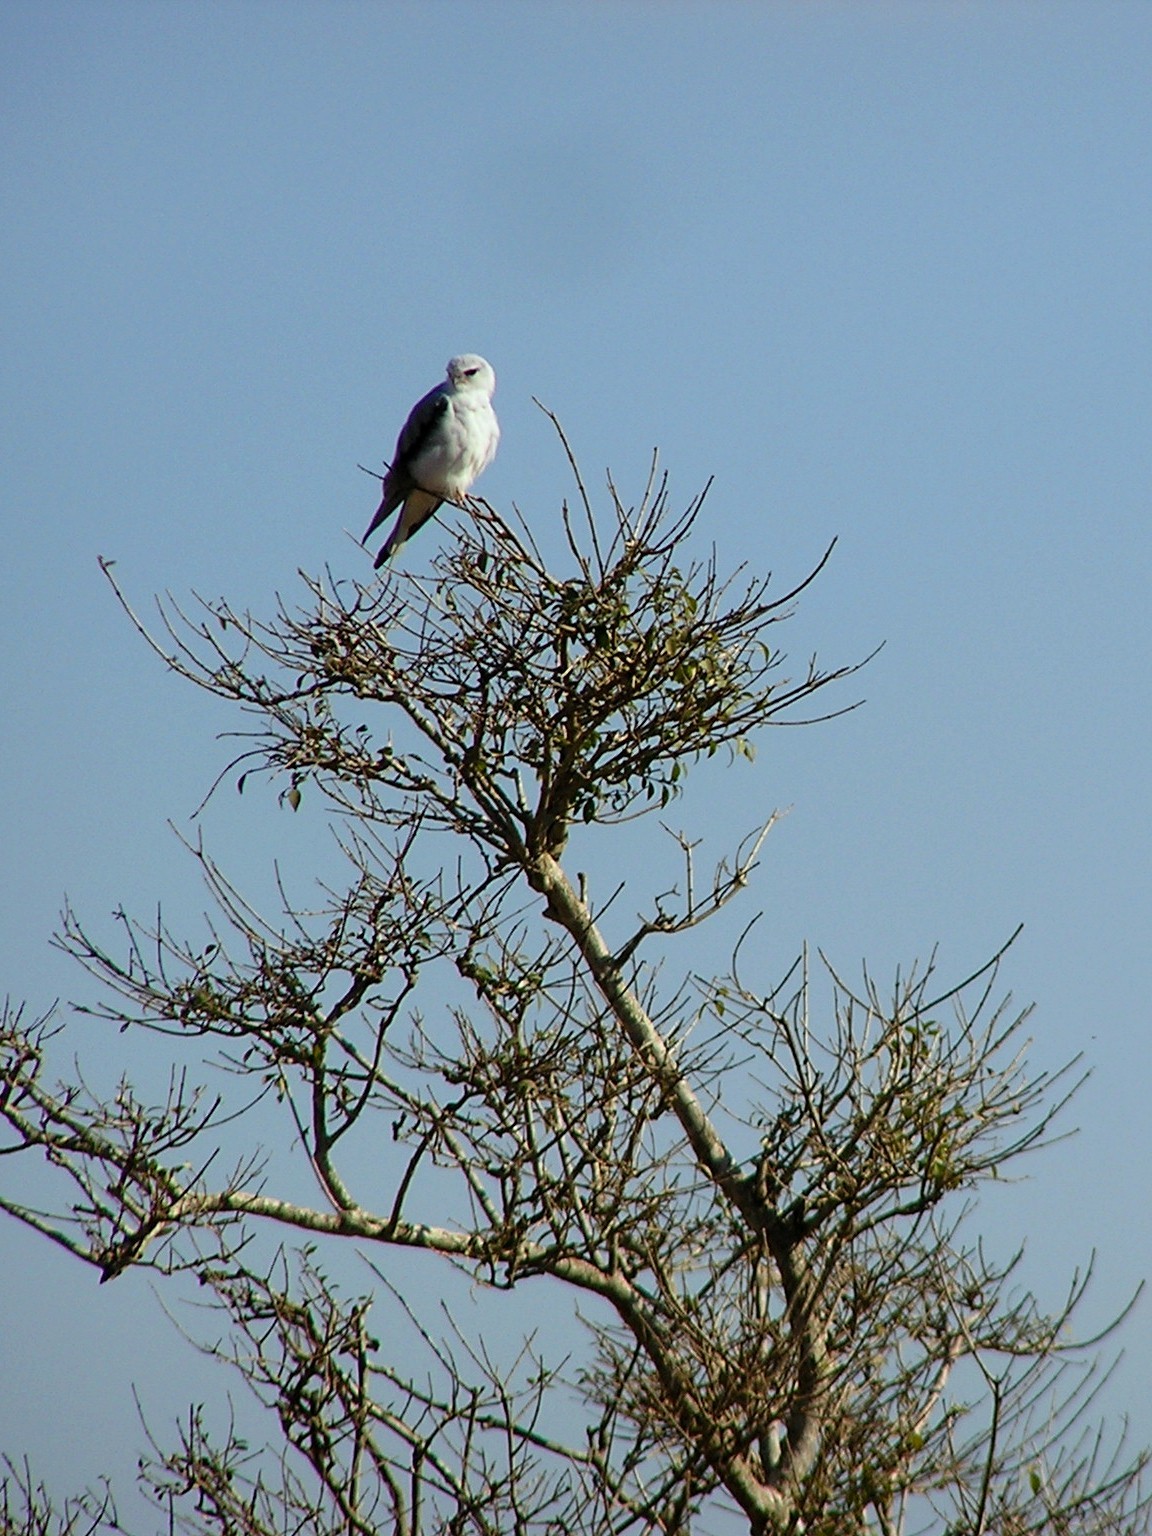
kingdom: Animalia
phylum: Chordata
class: Aves
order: Accipitriformes
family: Accipitridae
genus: Elanus
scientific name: Elanus caeruleus
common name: Black-winged kite
